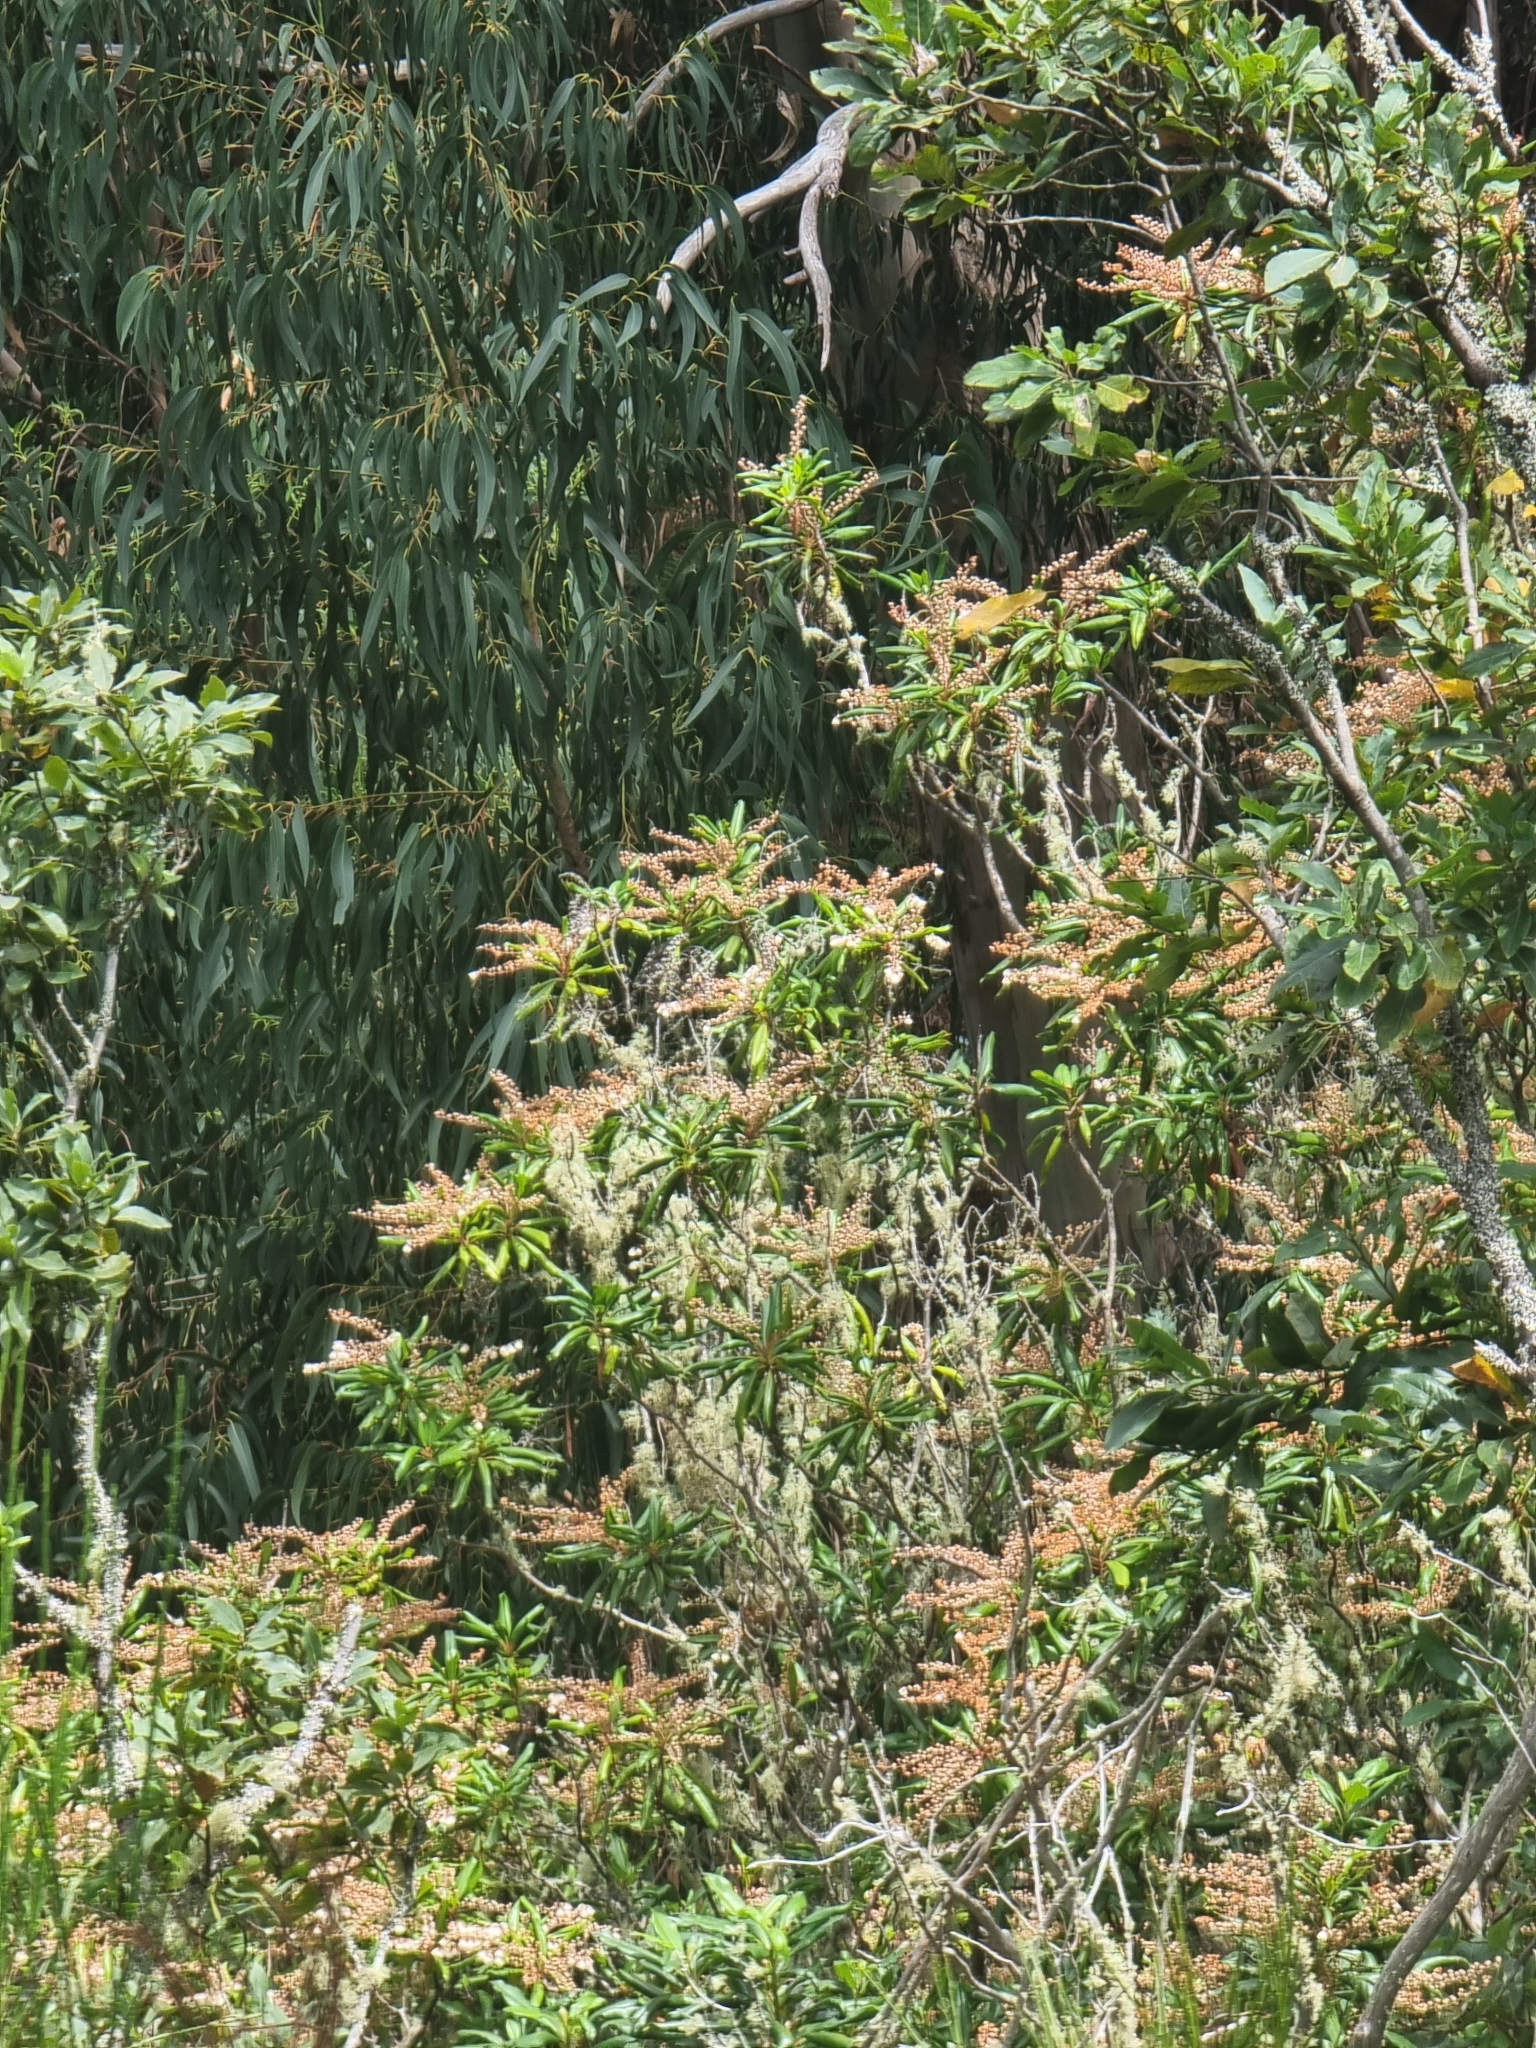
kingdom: Plantae
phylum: Tracheophyta
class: Magnoliopsida
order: Ericales
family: Clethraceae
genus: Clethra
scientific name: Clethra arborea
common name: Lily-of-the-valley-tree
